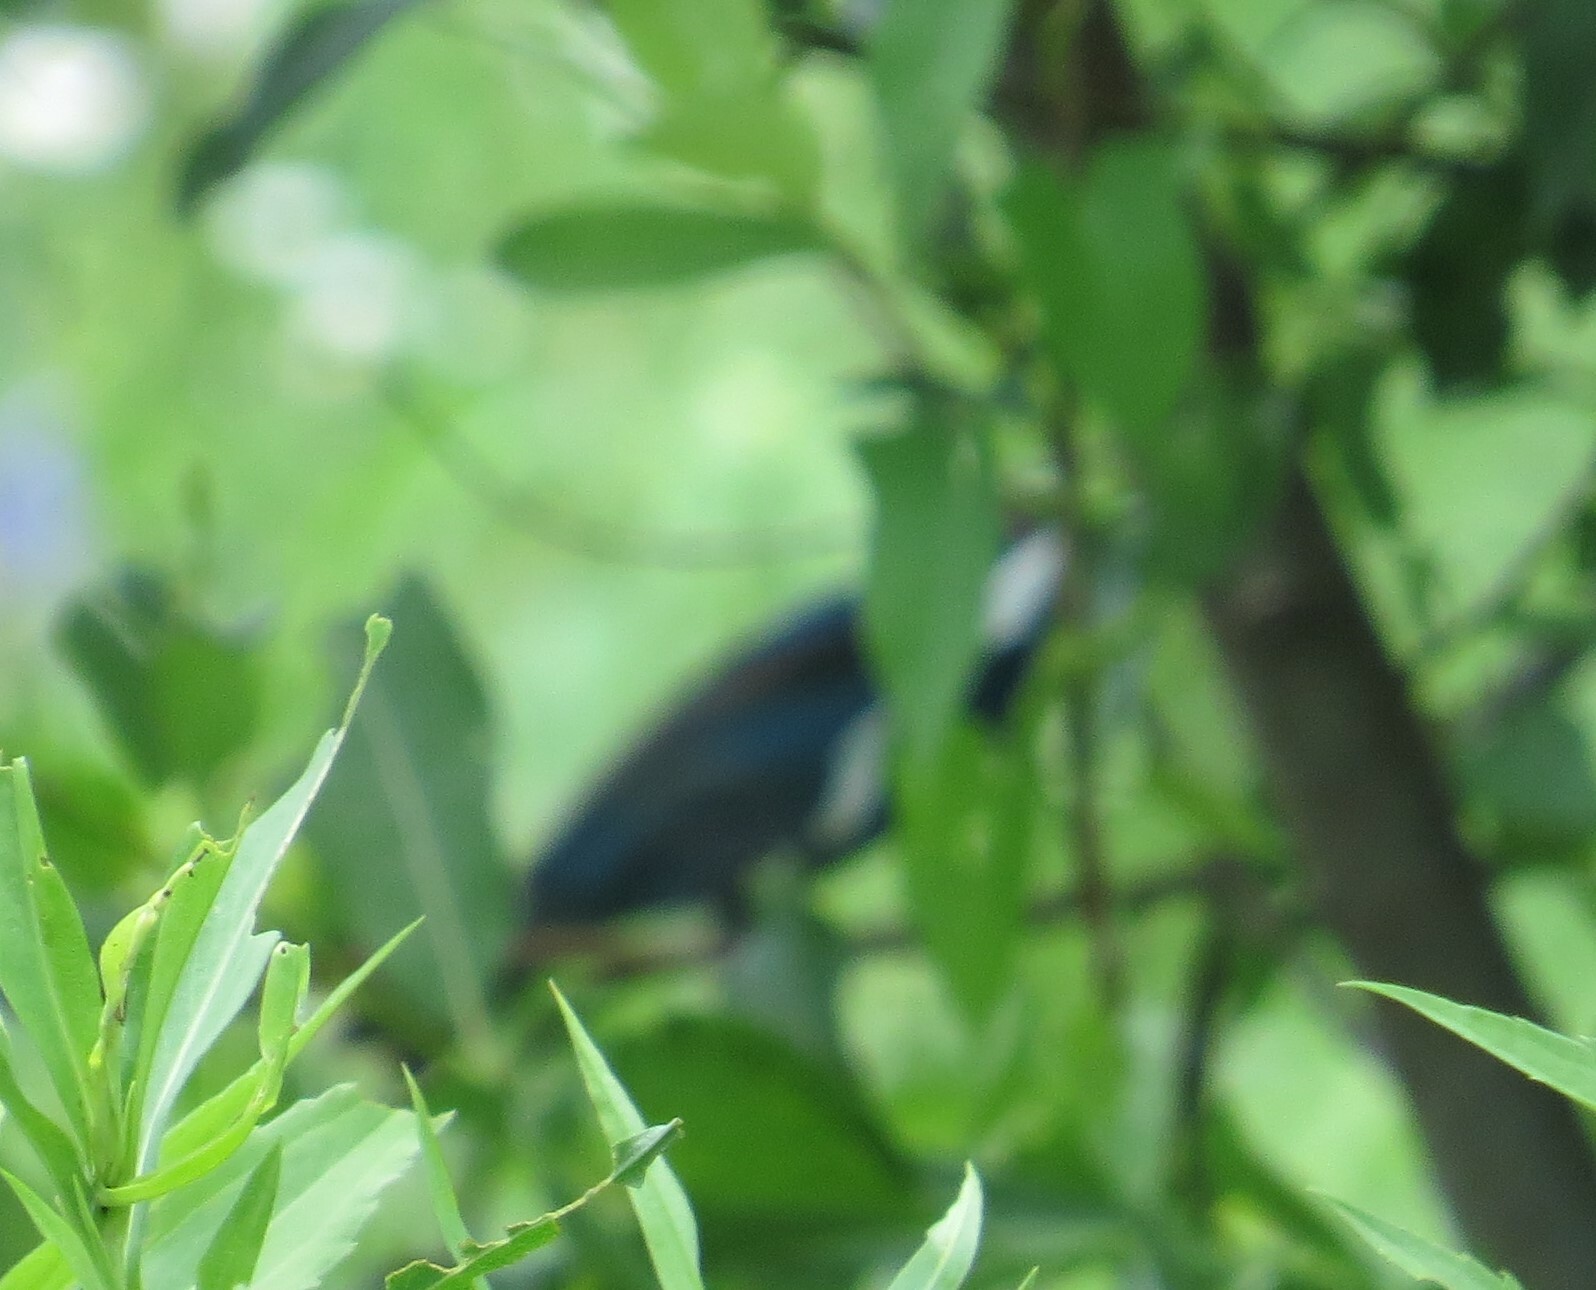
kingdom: Animalia
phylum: Chordata
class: Aves
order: Passeriformes
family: Cardinalidae
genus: Passerina
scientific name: Passerina cyanea
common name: Indigo bunting
